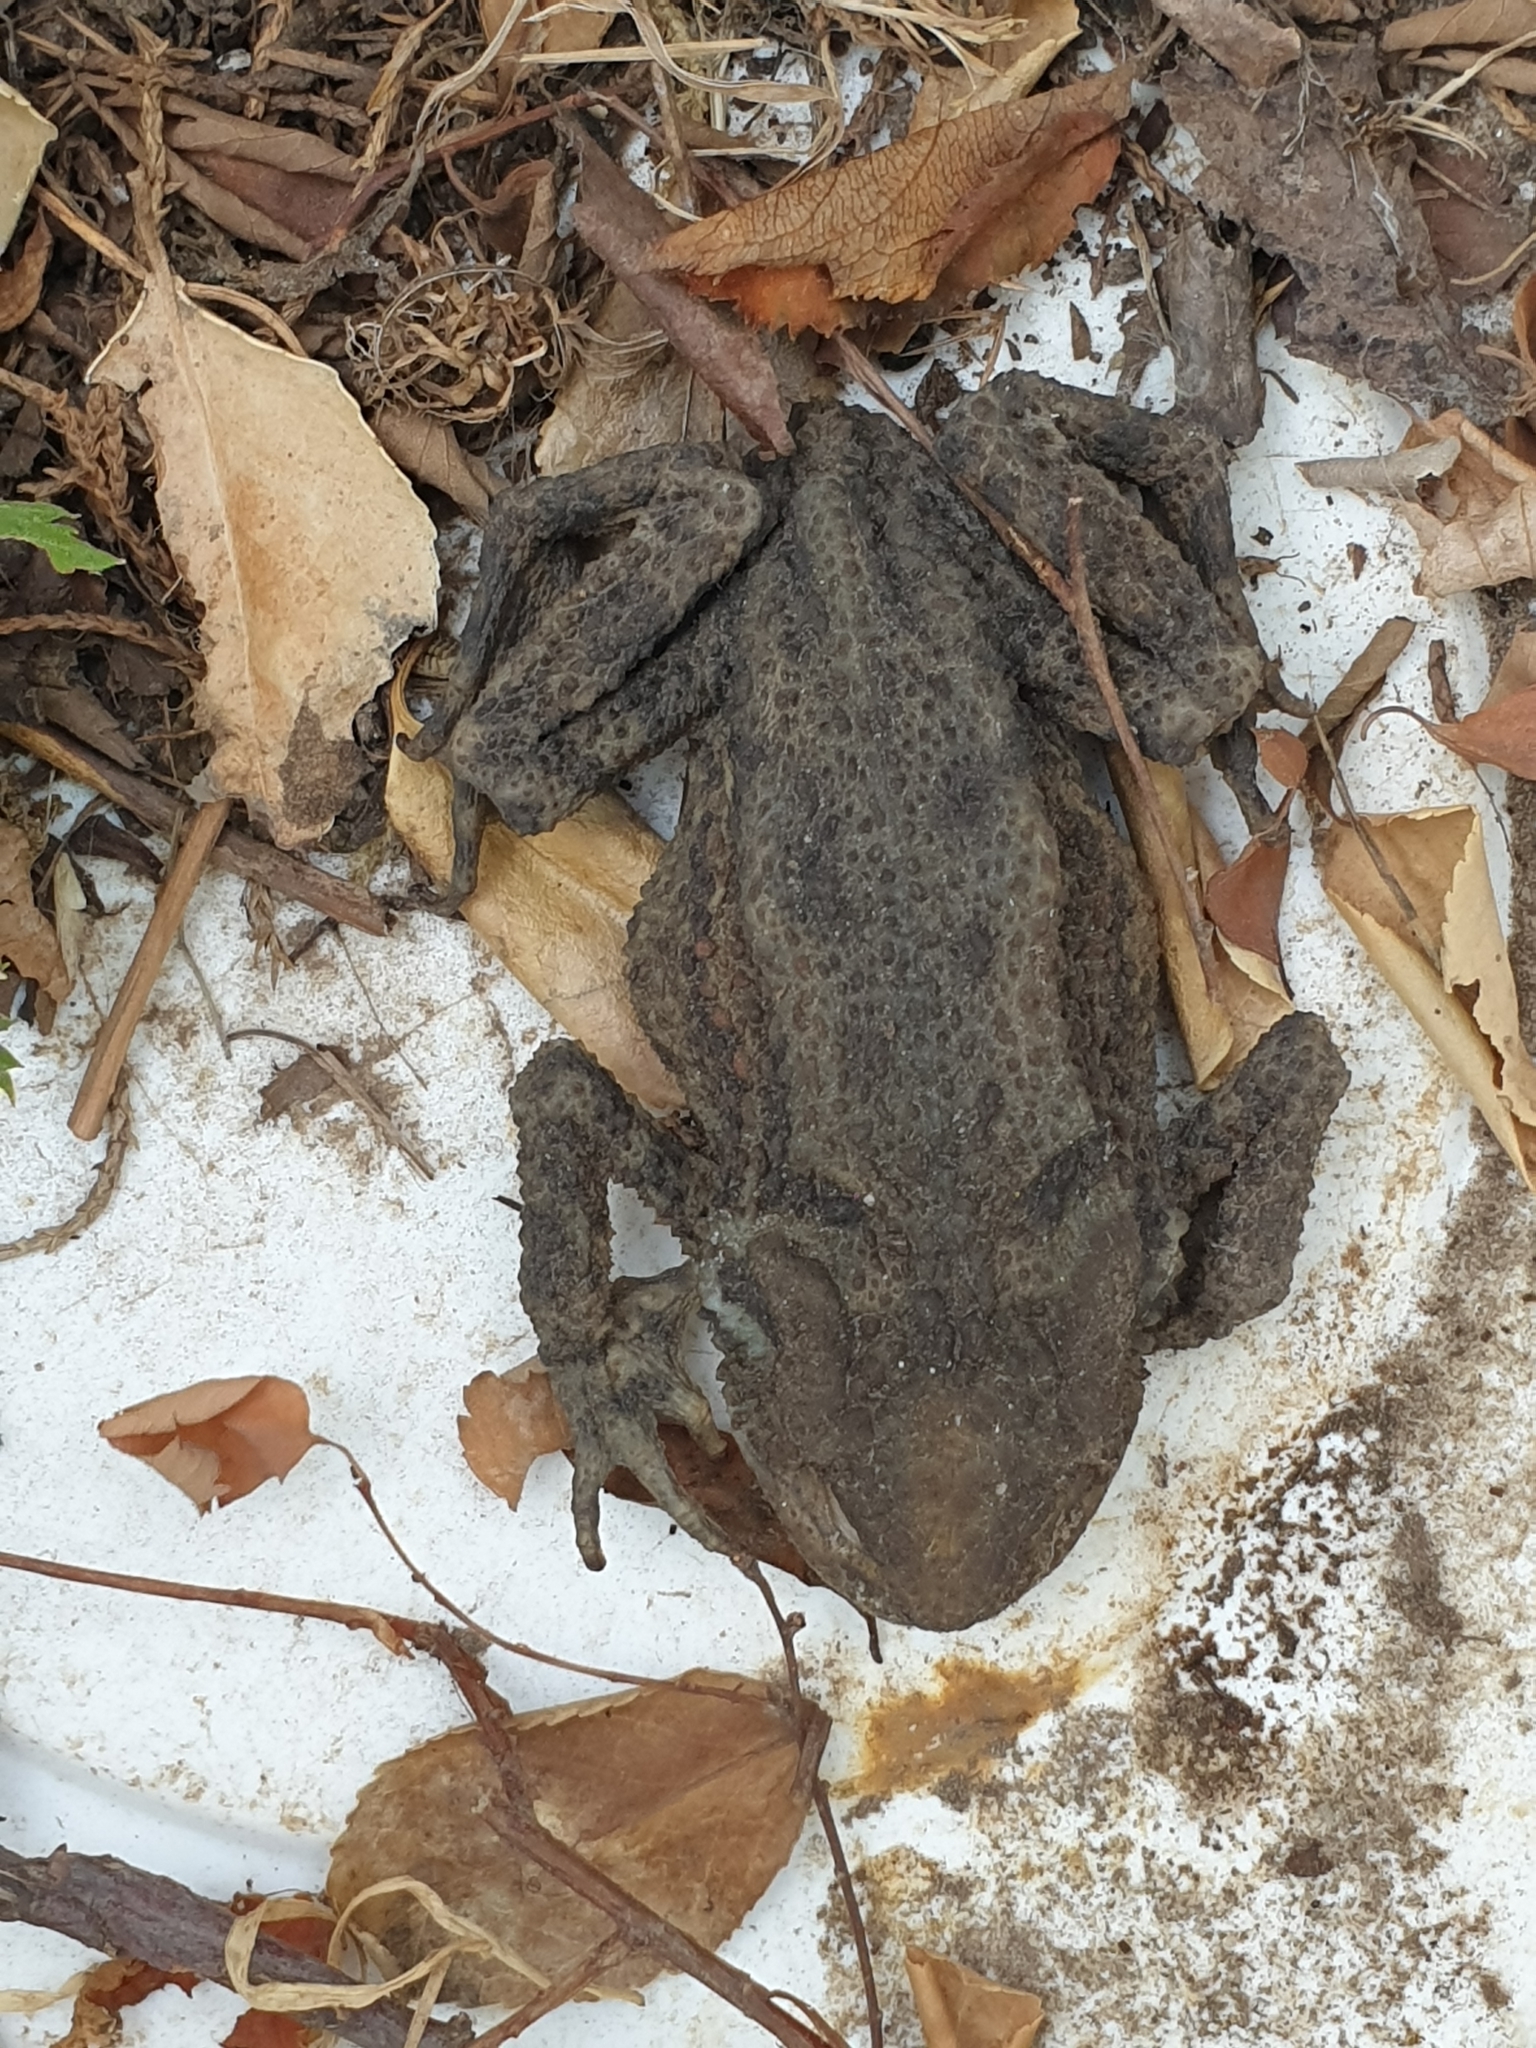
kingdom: Animalia
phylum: Chordata
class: Amphibia
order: Anura
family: Bufonidae
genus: Bufo
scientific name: Bufo bufo
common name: Common toad
